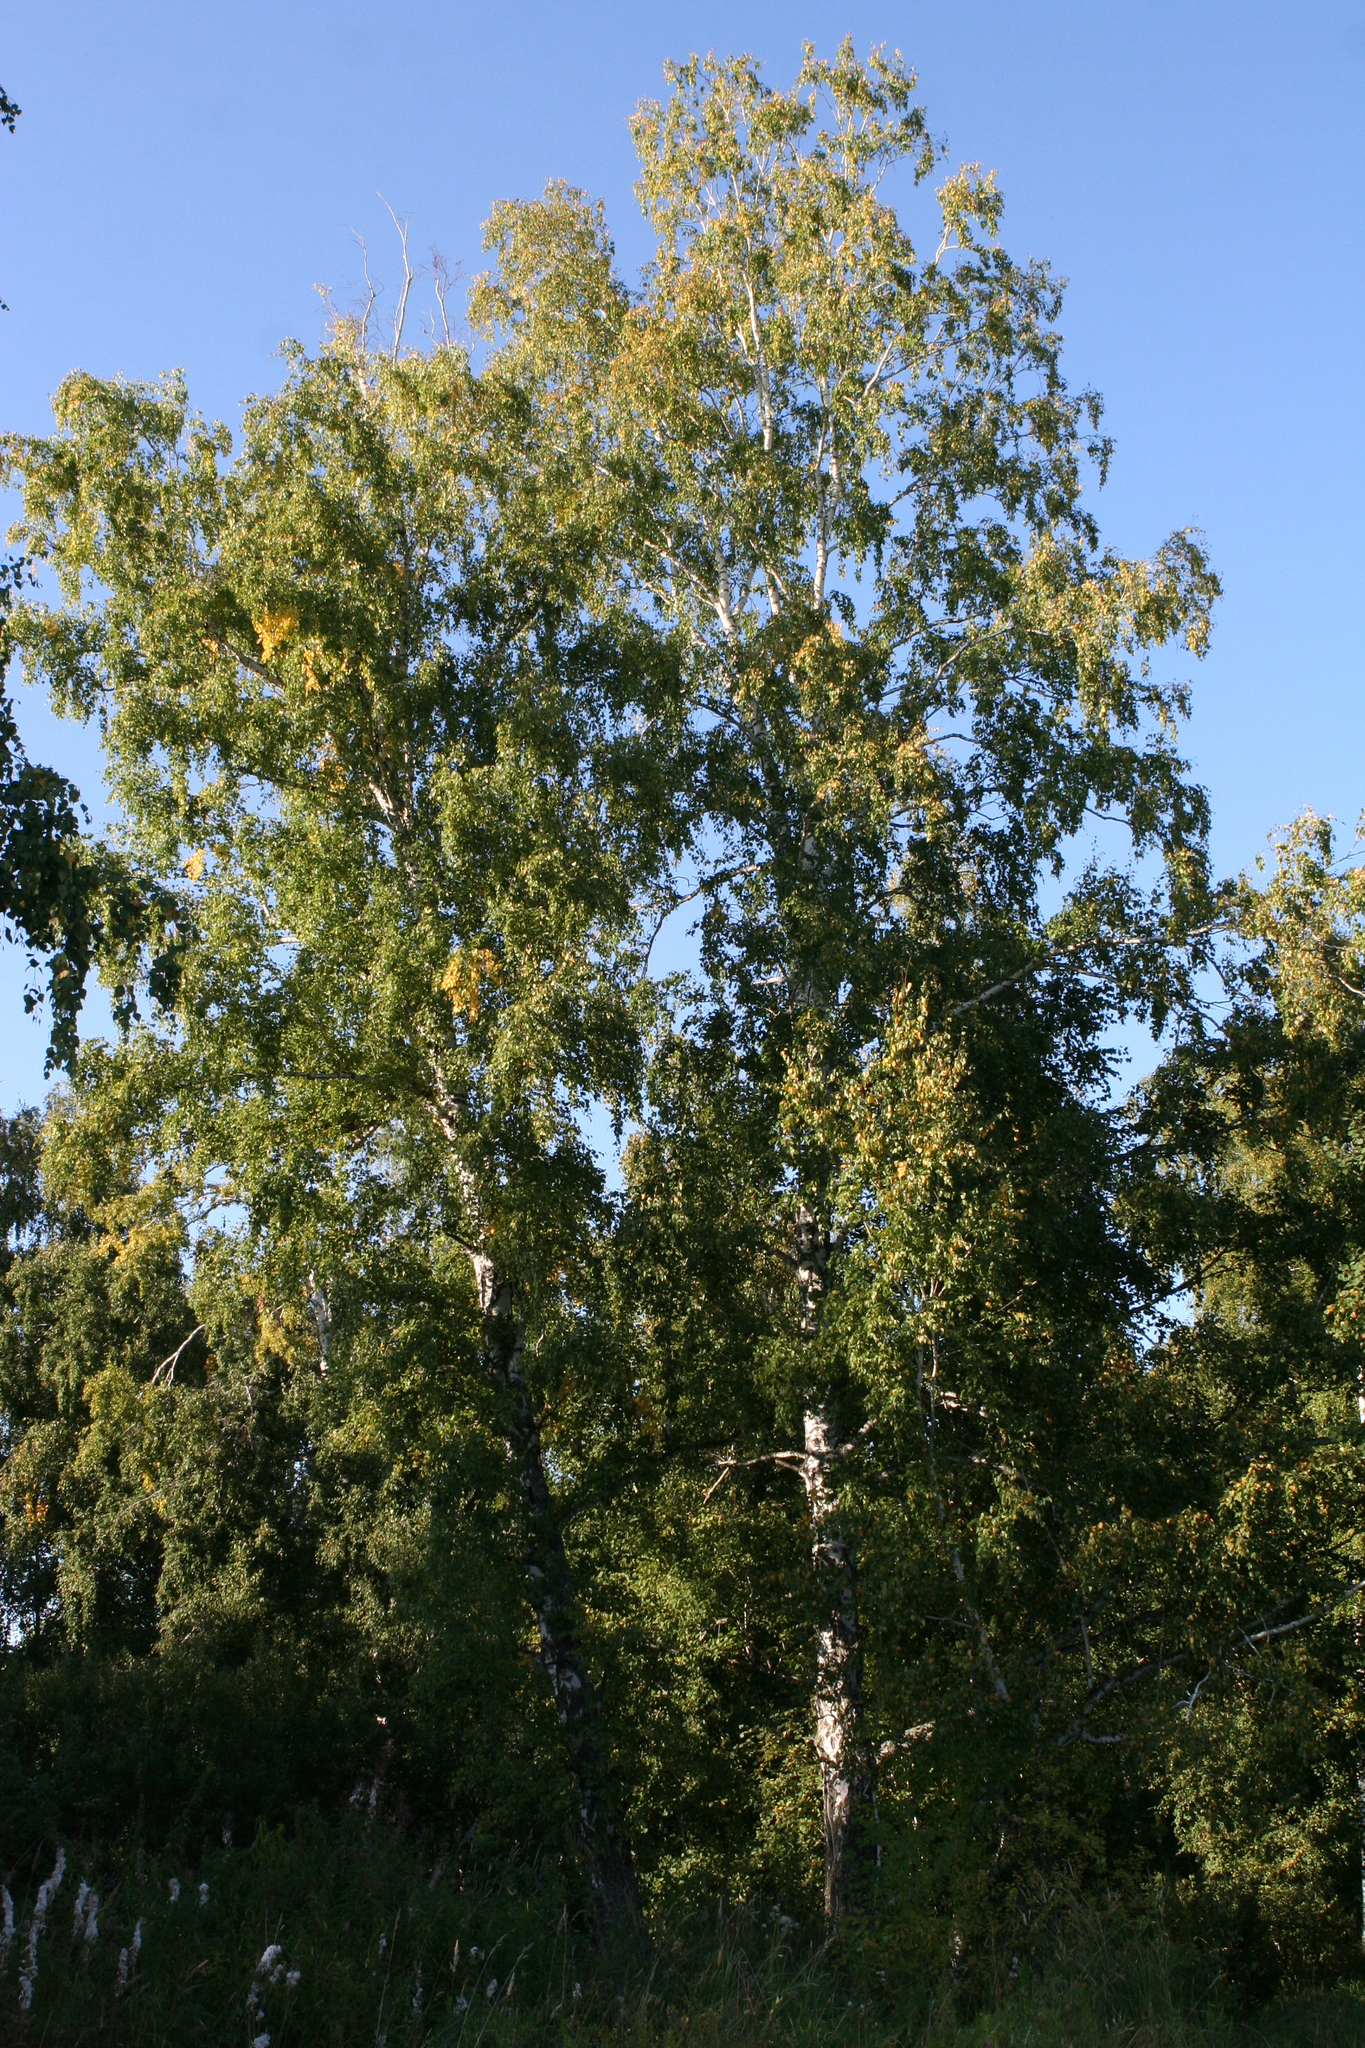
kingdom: Plantae
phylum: Tracheophyta
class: Magnoliopsida
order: Fagales
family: Betulaceae
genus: Betula
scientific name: Betula pendula
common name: Silver birch
